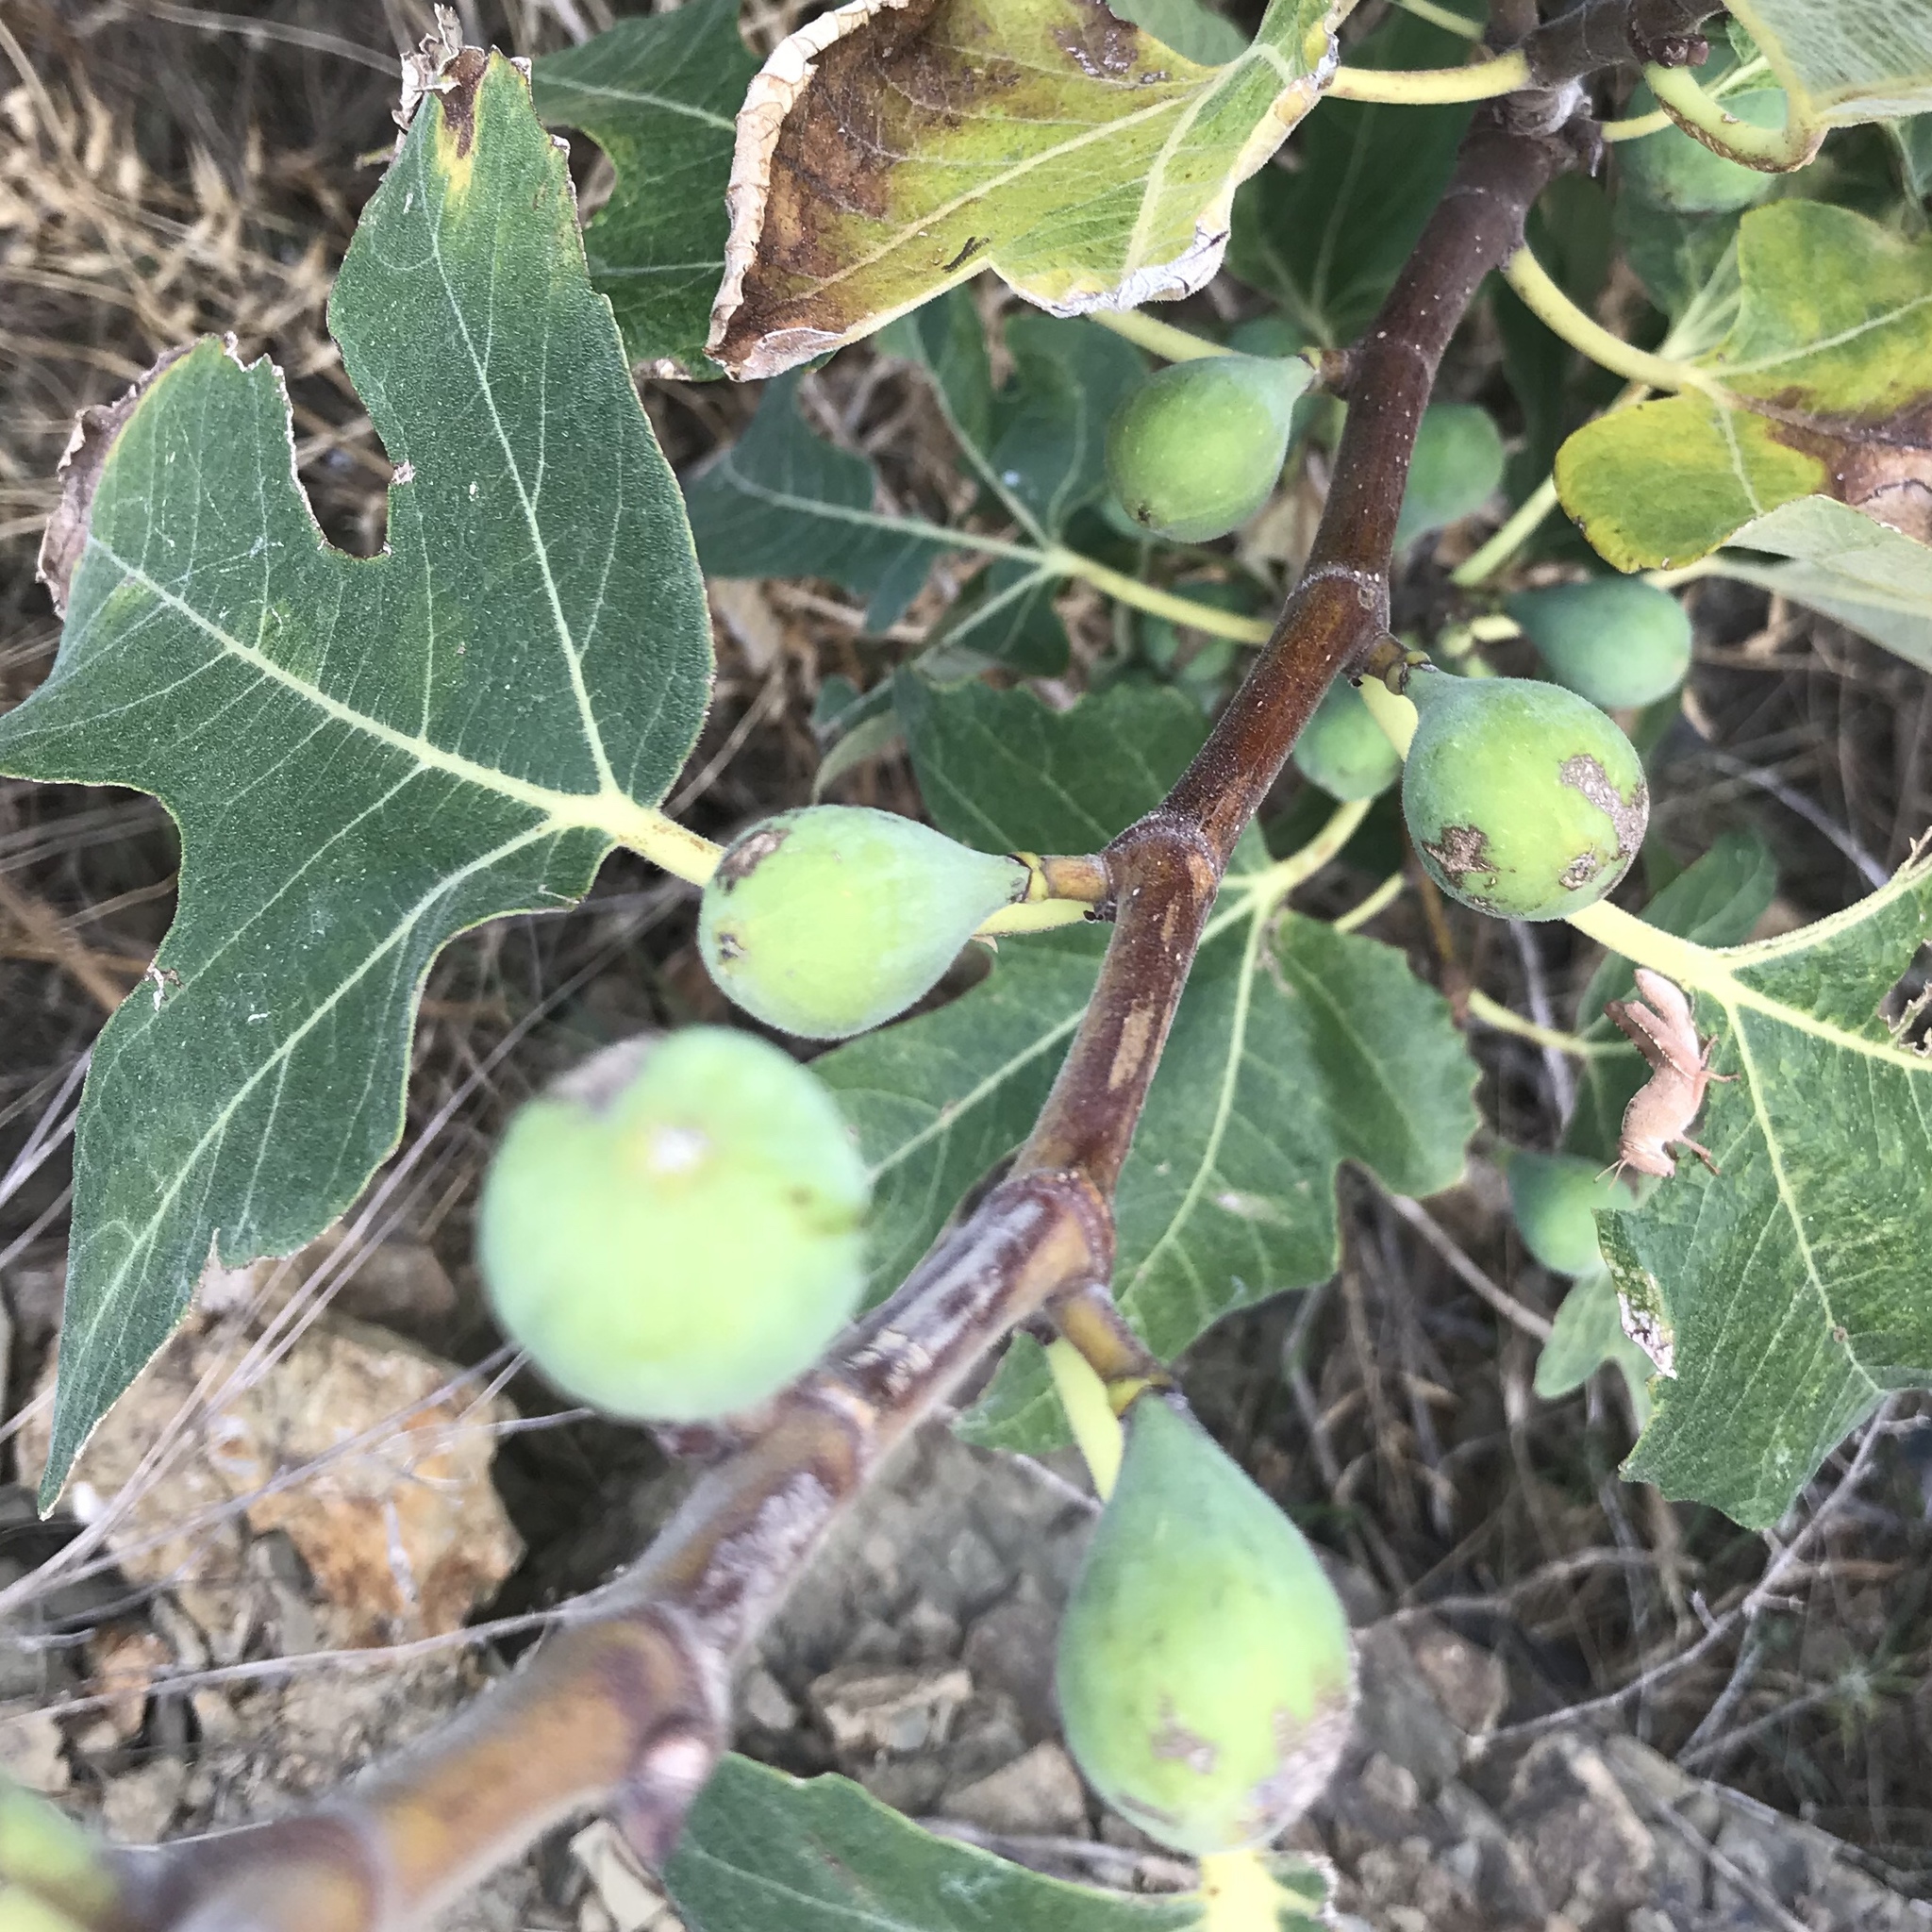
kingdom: Plantae
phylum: Tracheophyta
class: Magnoliopsida
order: Rosales
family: Moraceae
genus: Ficus
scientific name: Ficus carica
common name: Fig
